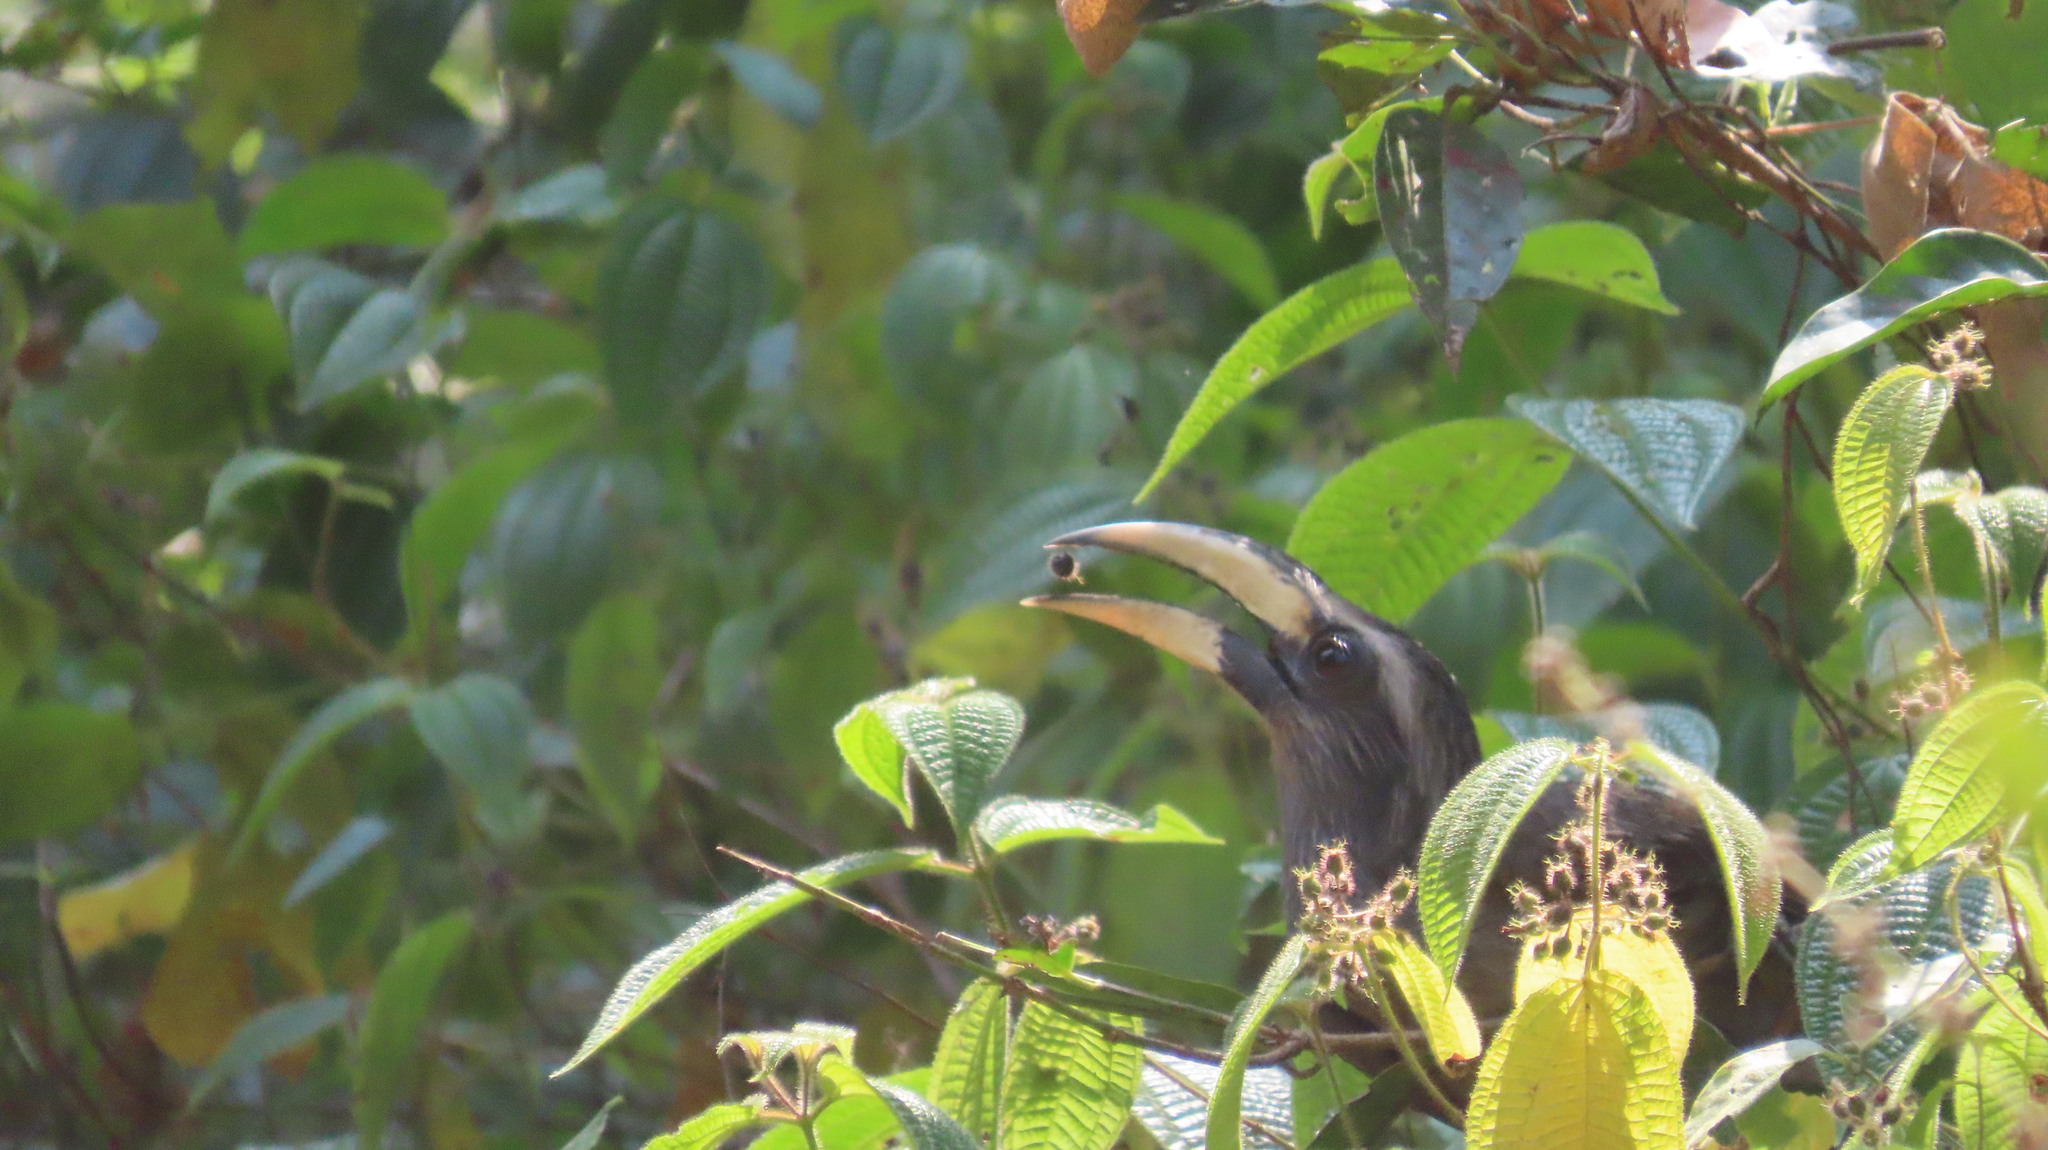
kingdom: Animalia
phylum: Chordata
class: Aves
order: Bucerotiformes
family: Bucerotidae
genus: Ocyceros
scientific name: Ocyceros griseus
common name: Malabar grey hornbill
